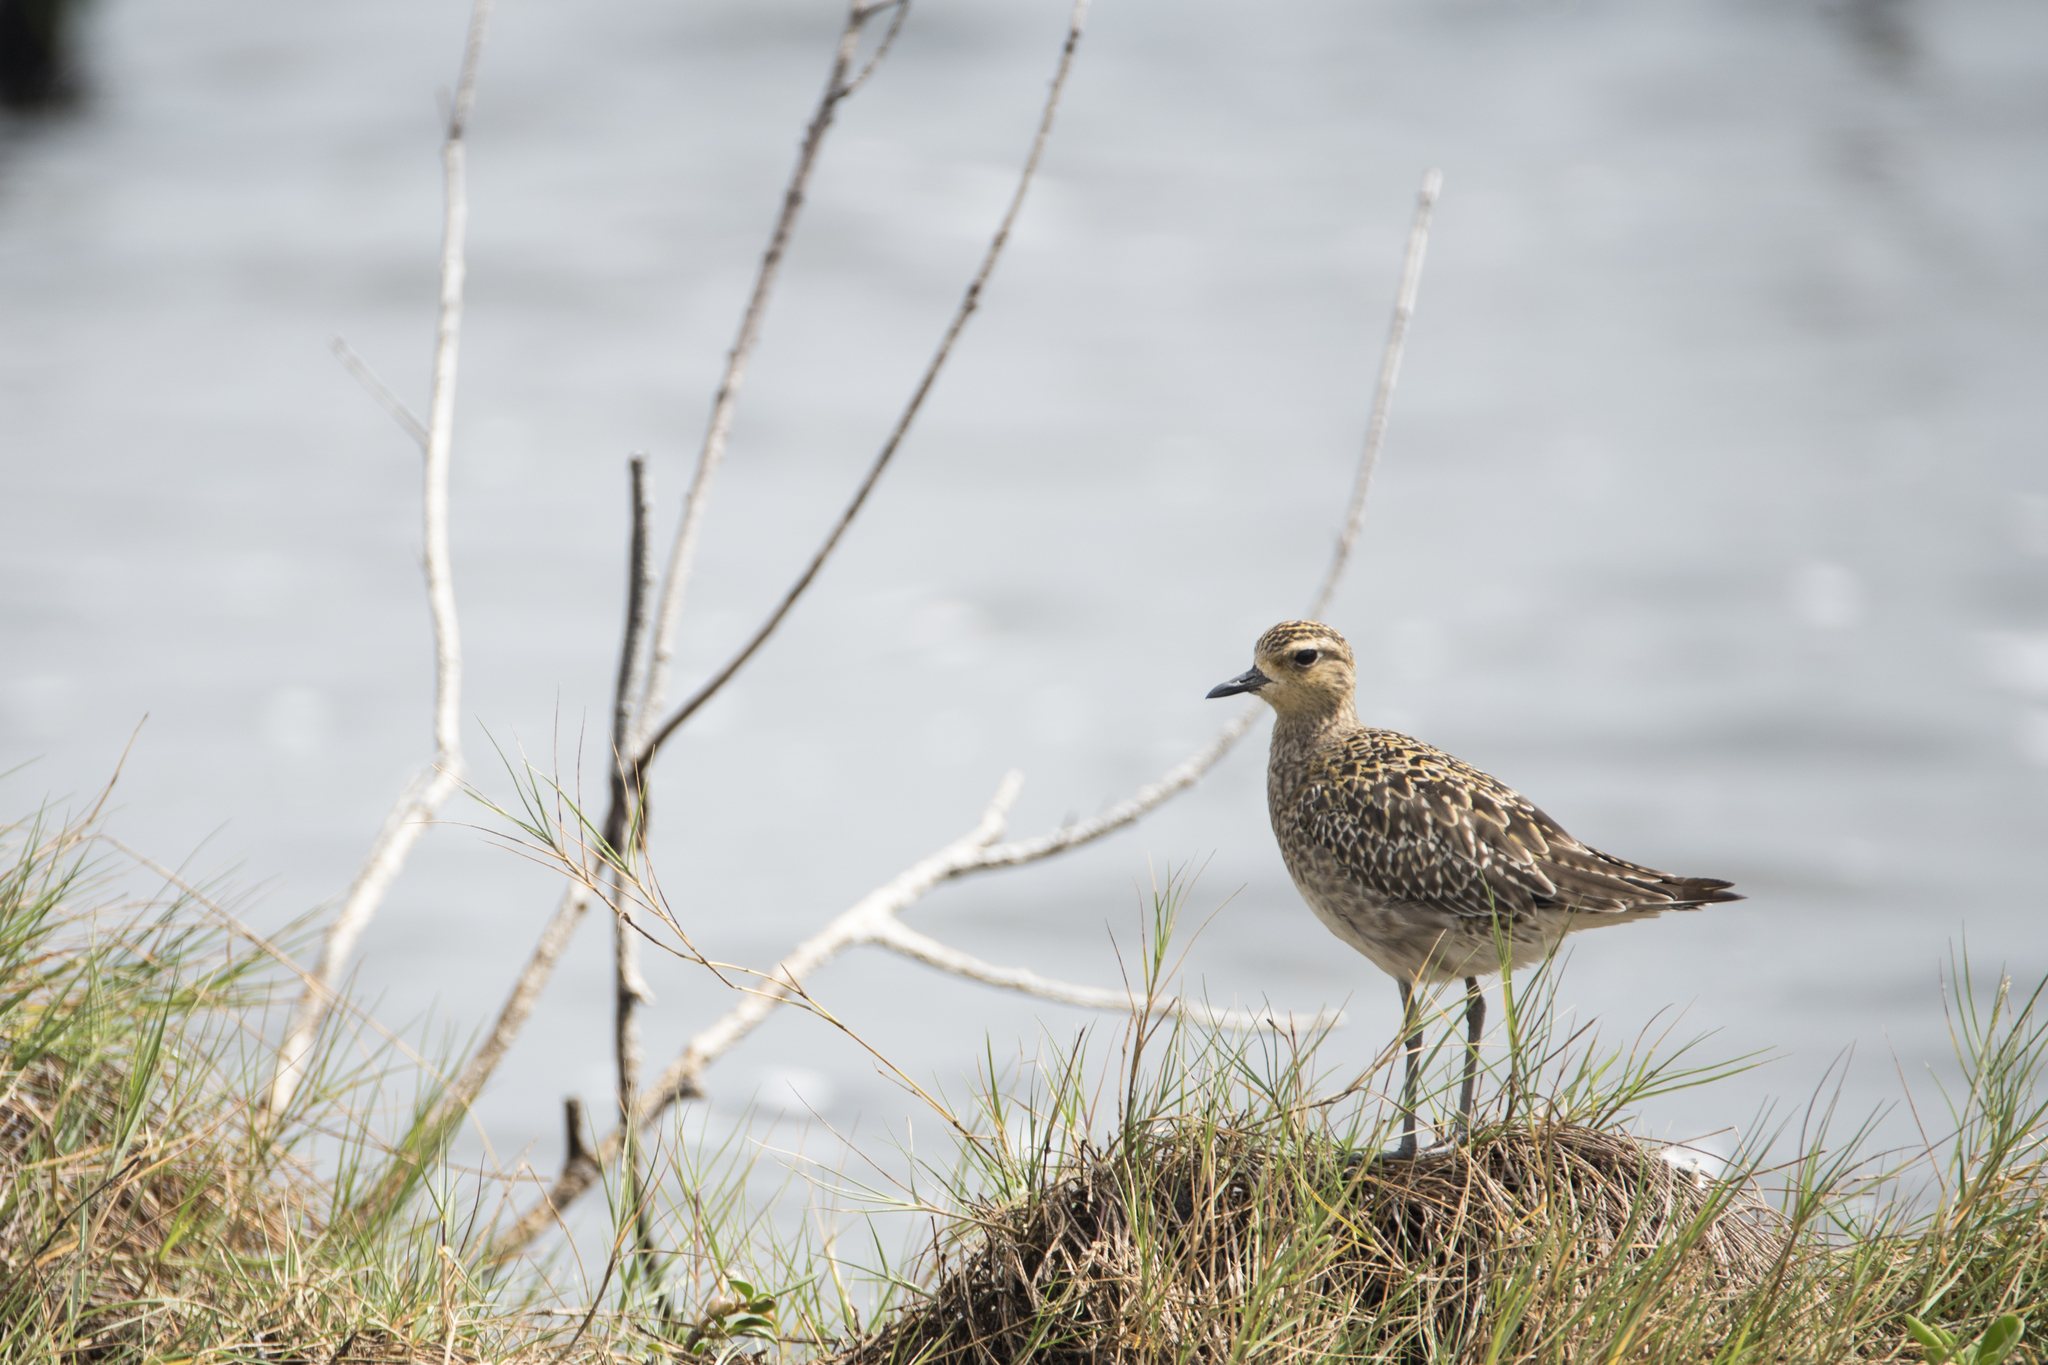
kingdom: Animalia
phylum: Chordata
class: Aves
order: Charadriiformes
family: Charadriidae
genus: Pluvialis
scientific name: Pluvialis fulva
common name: Pacific golden plover
